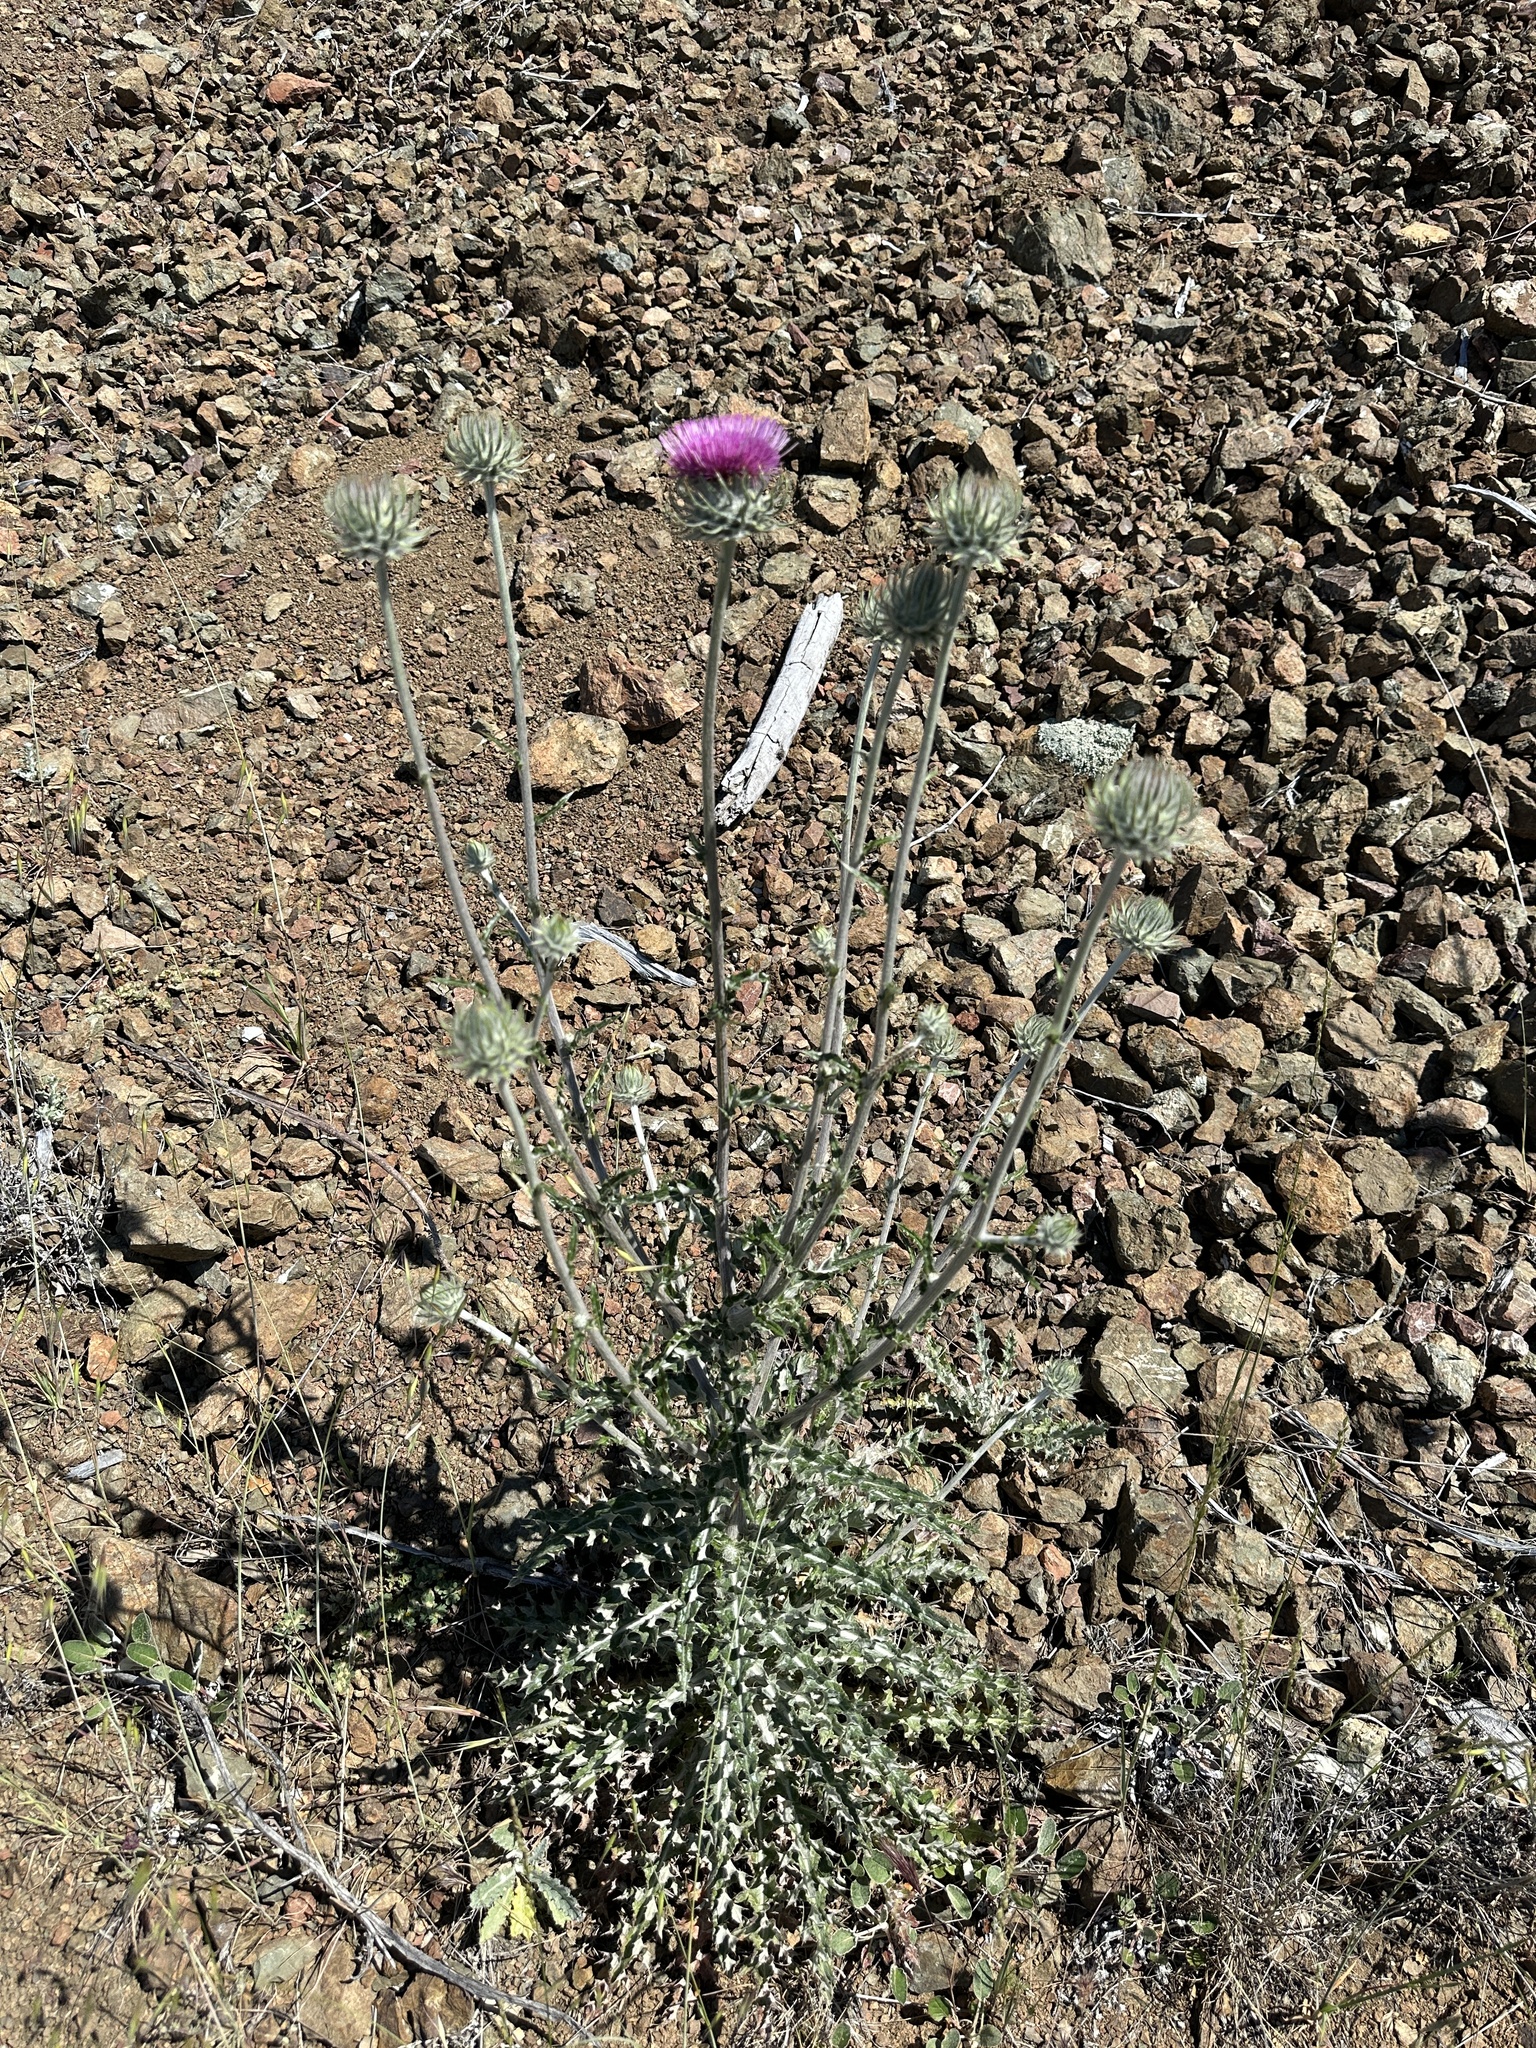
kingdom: Plantae
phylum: Tracheophyta
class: Magnoliopsida
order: Asterales
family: Asteraceae
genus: Cirsium
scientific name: Cirsium occidentale
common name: Western thistle
